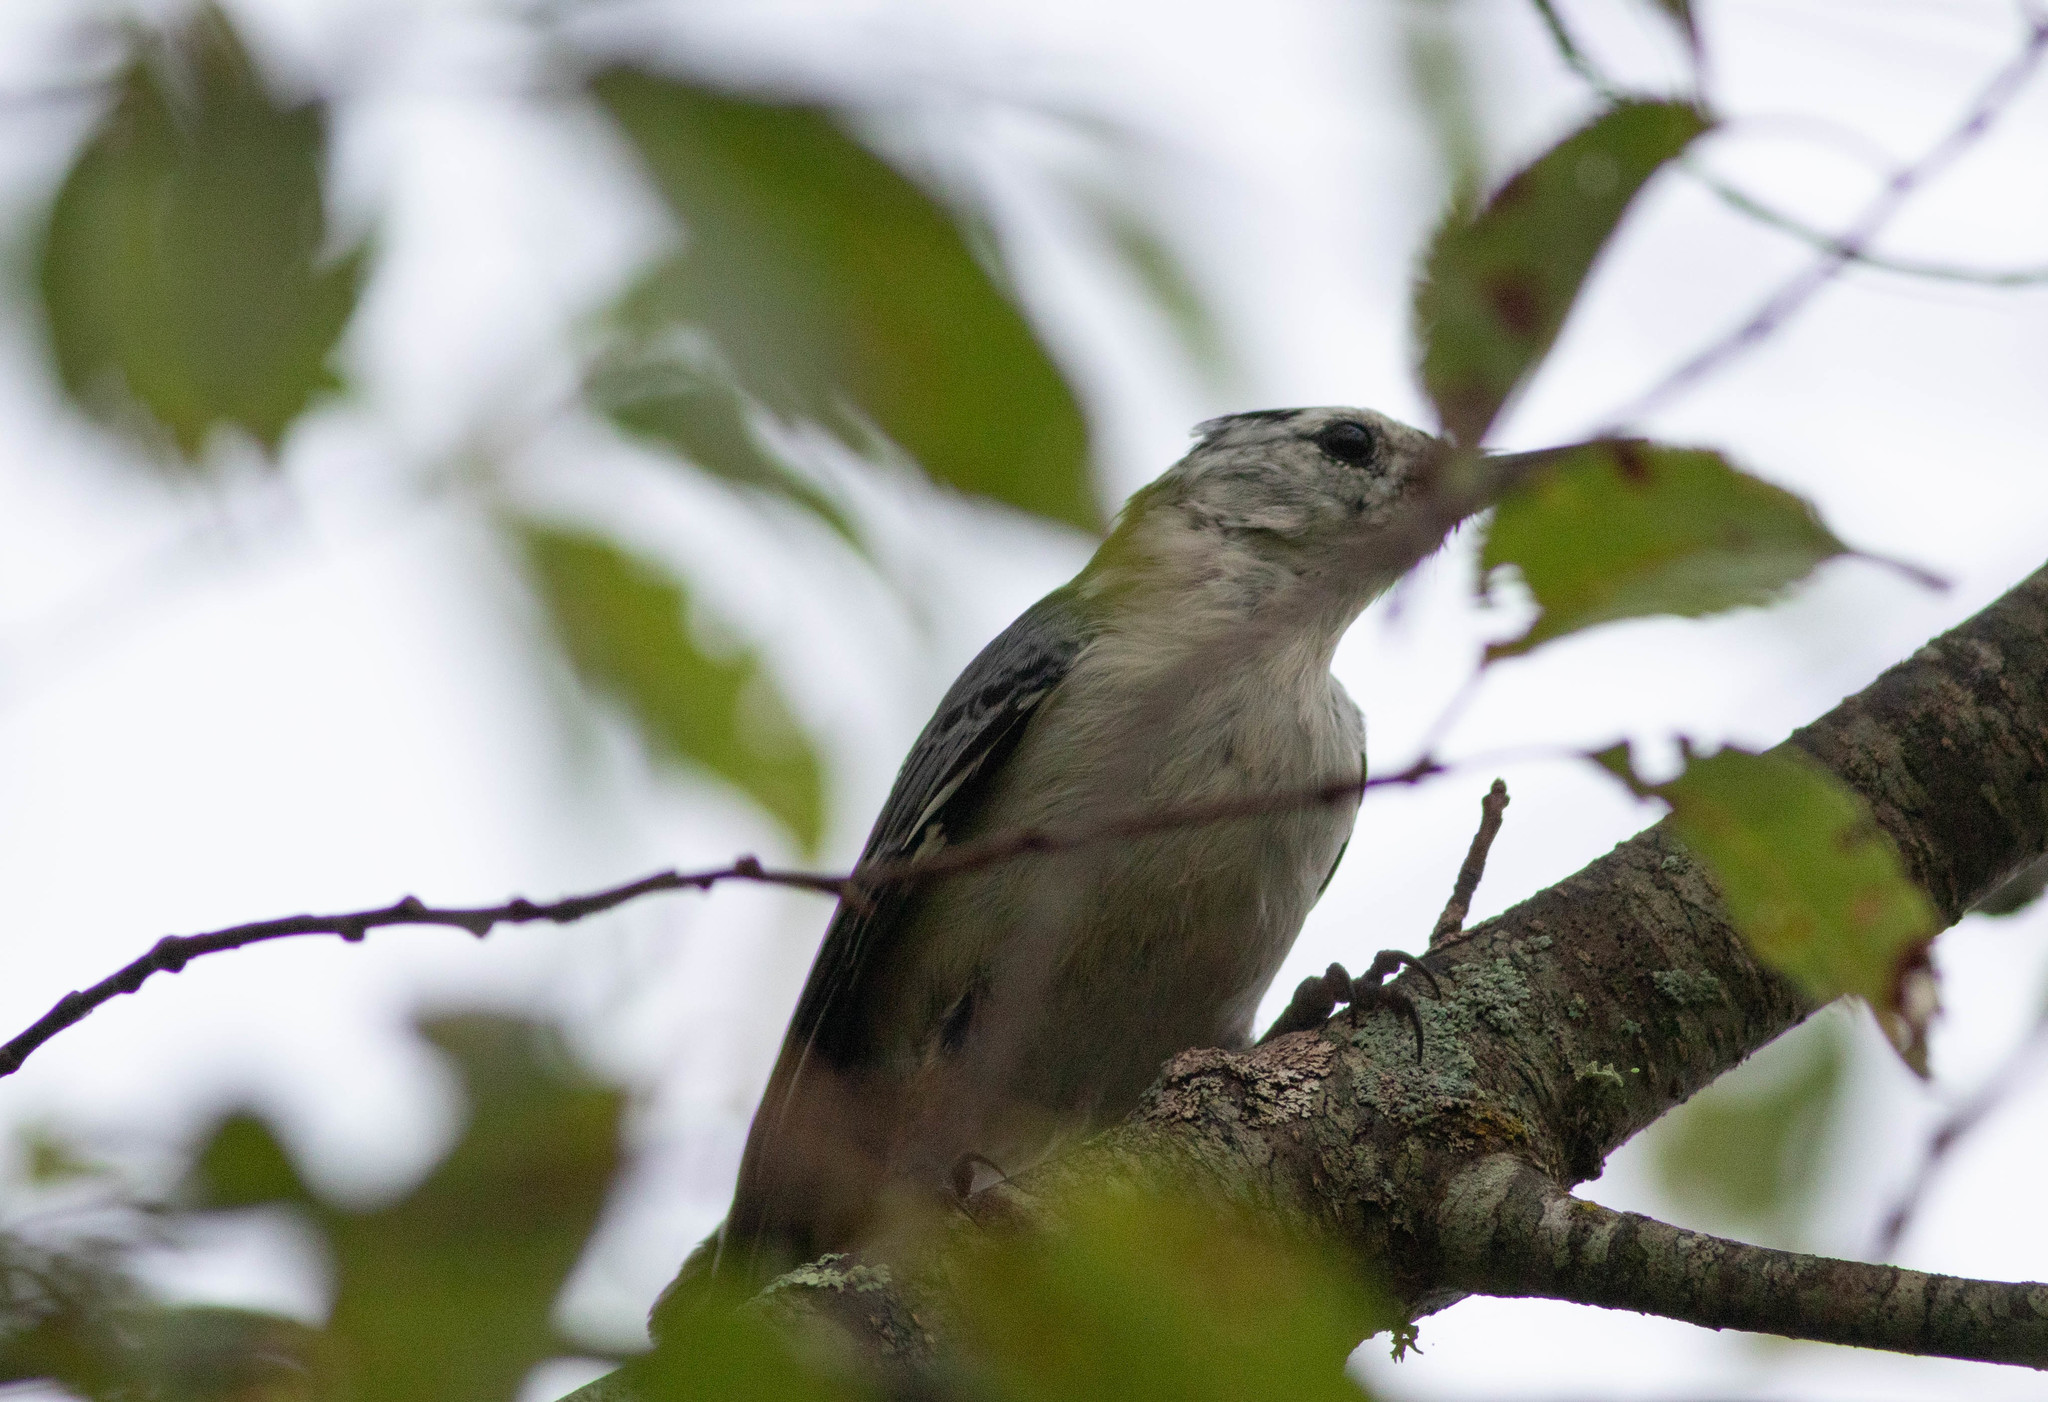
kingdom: Animalia
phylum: Chordata
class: Aves
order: Passeriformes
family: Sittidae
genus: Sitta
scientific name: Sitta carolinensis
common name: White-breasted nuthatch
